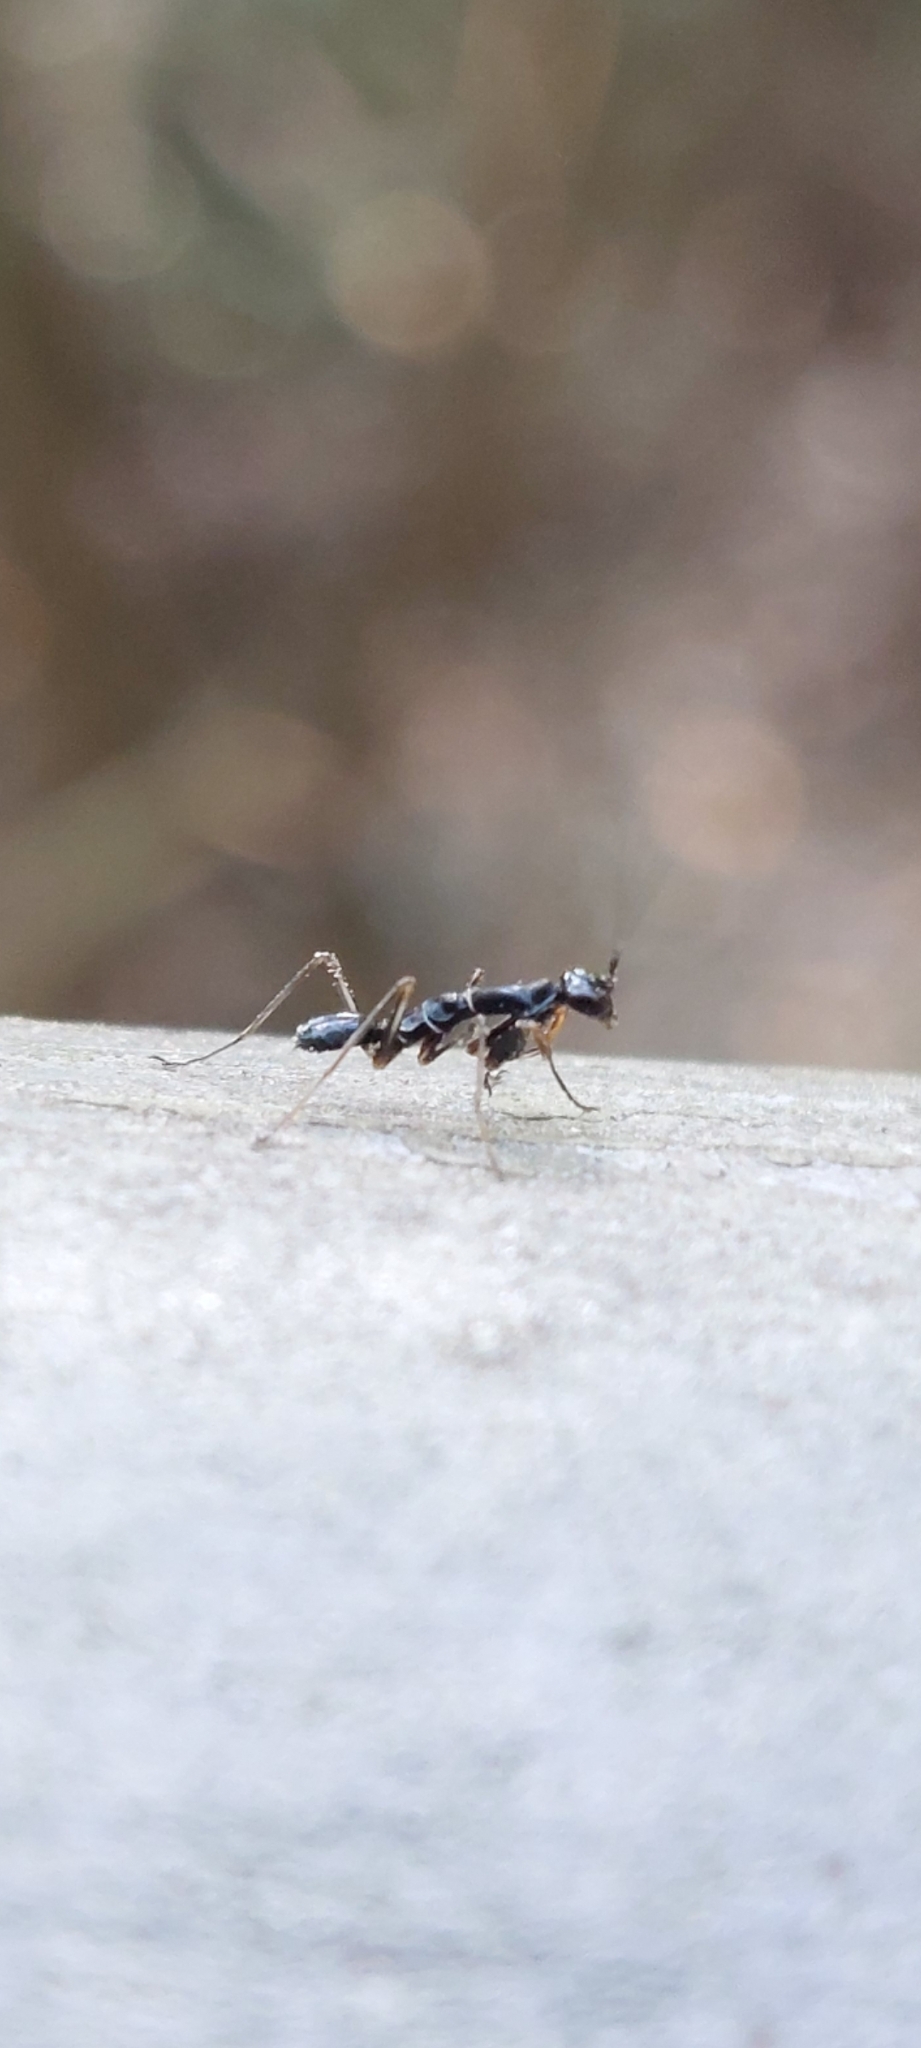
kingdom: Animalia
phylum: Arthropoda
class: Insecta
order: Mantodea
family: Hymenopodidae
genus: Odontomantis
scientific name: Odontomantis longipennis
